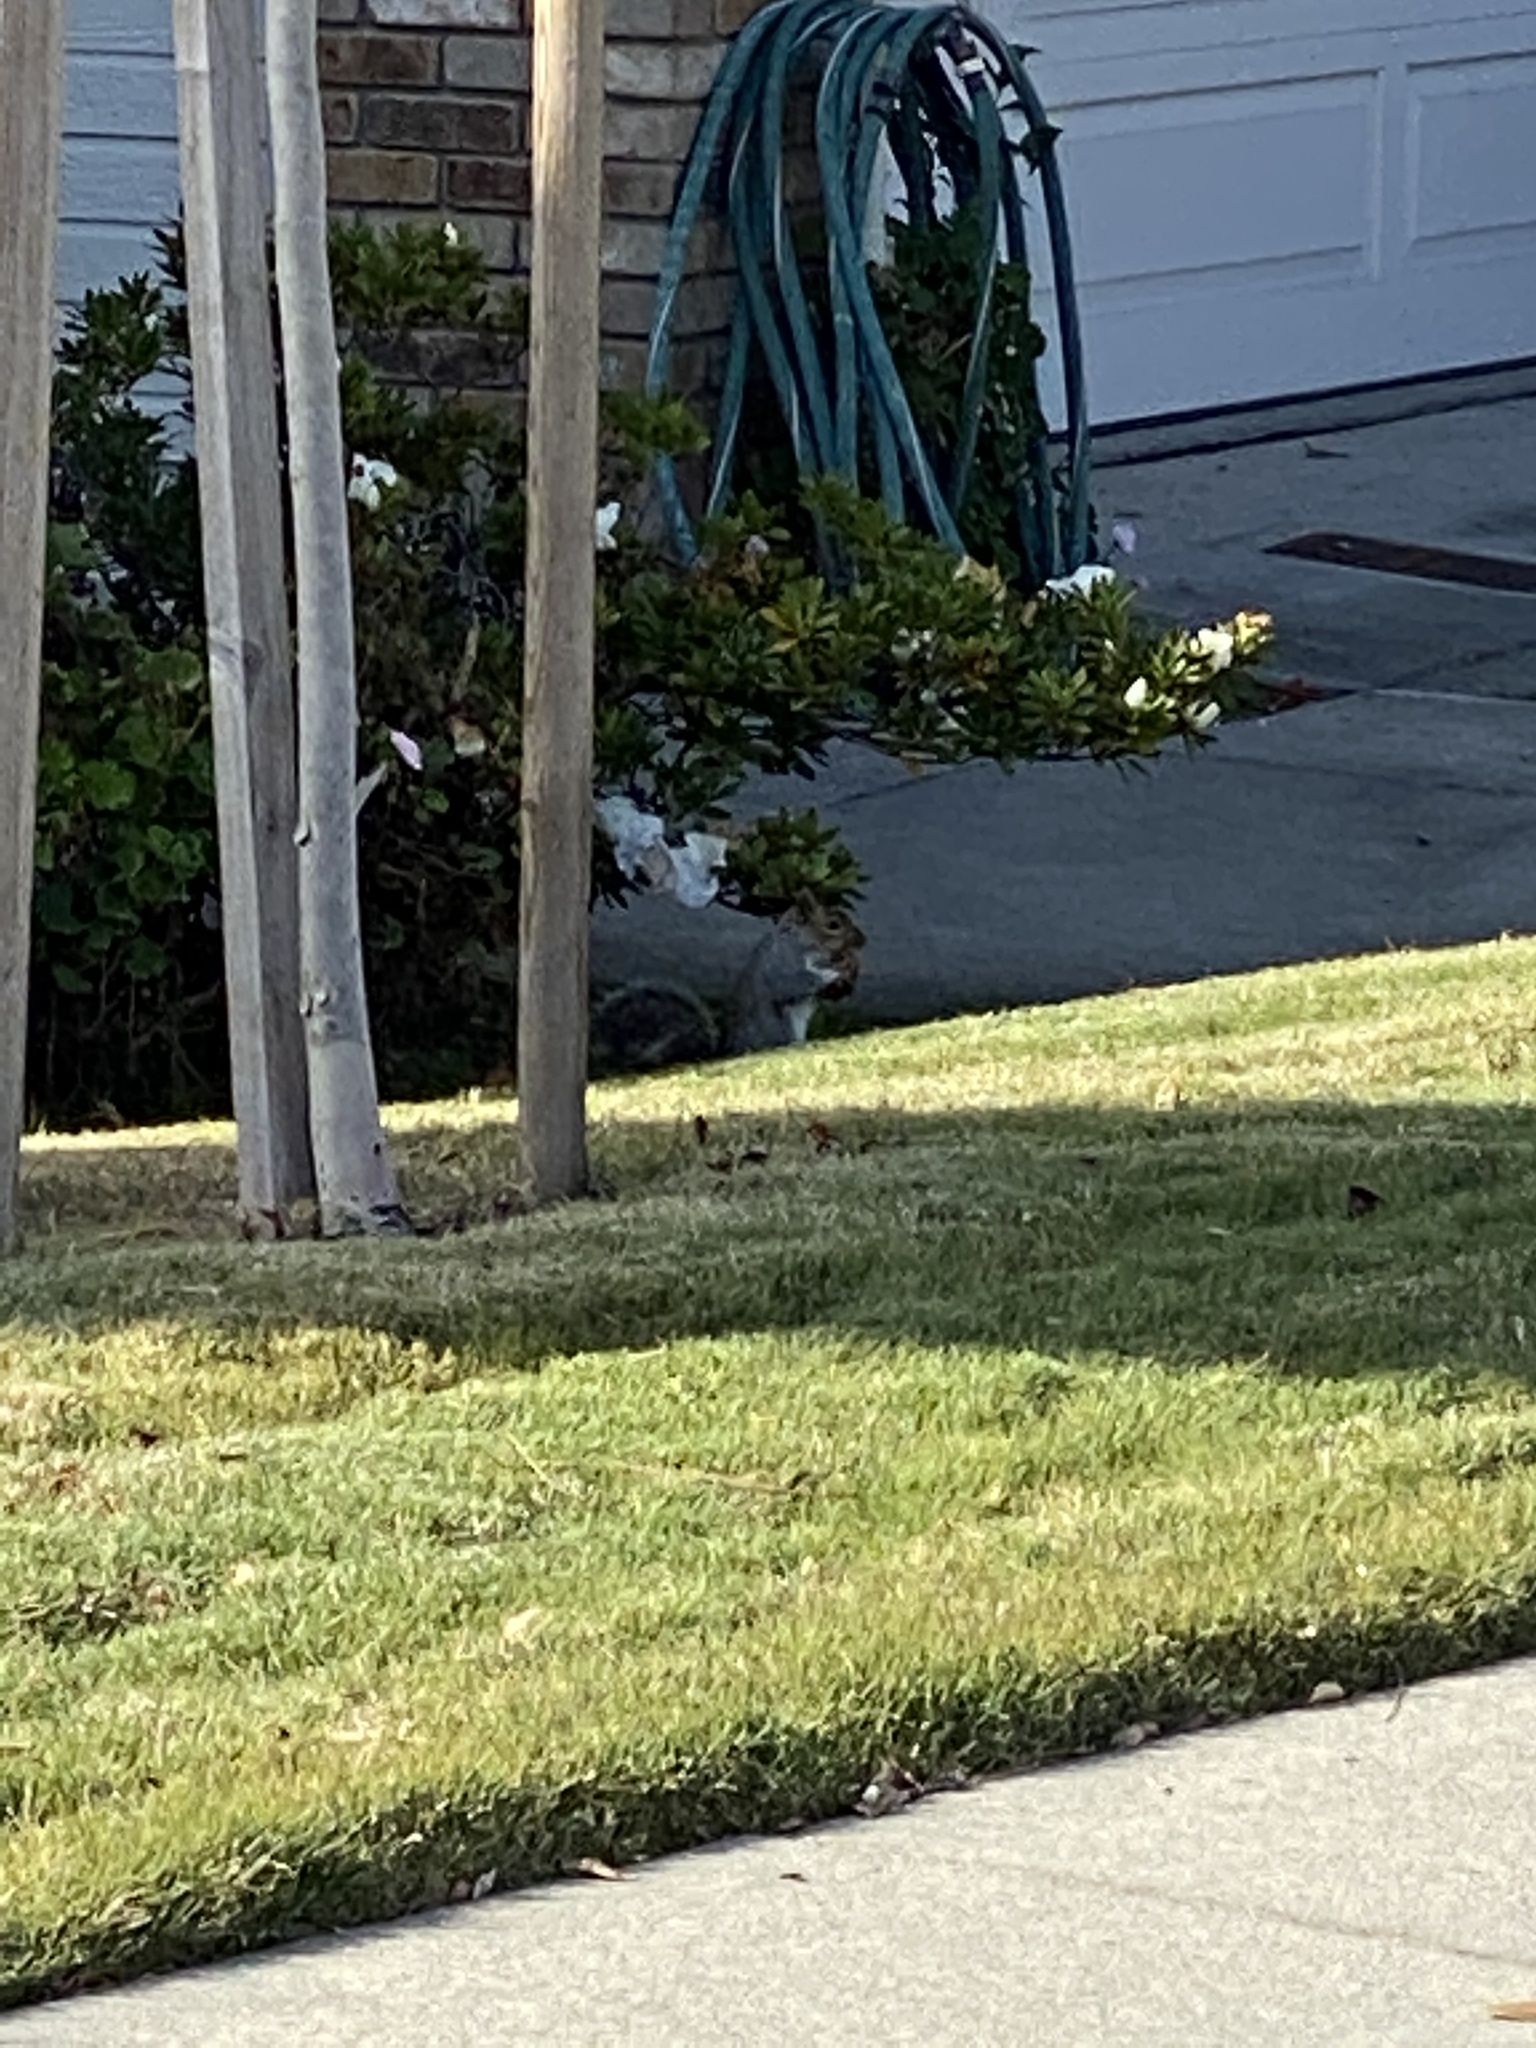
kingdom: Animalia
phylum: Chordata
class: Mammalia
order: Rodentia
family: Sciuridae
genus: Sciurus
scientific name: Sciurus carolinensis
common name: Eastern gray squirrel
